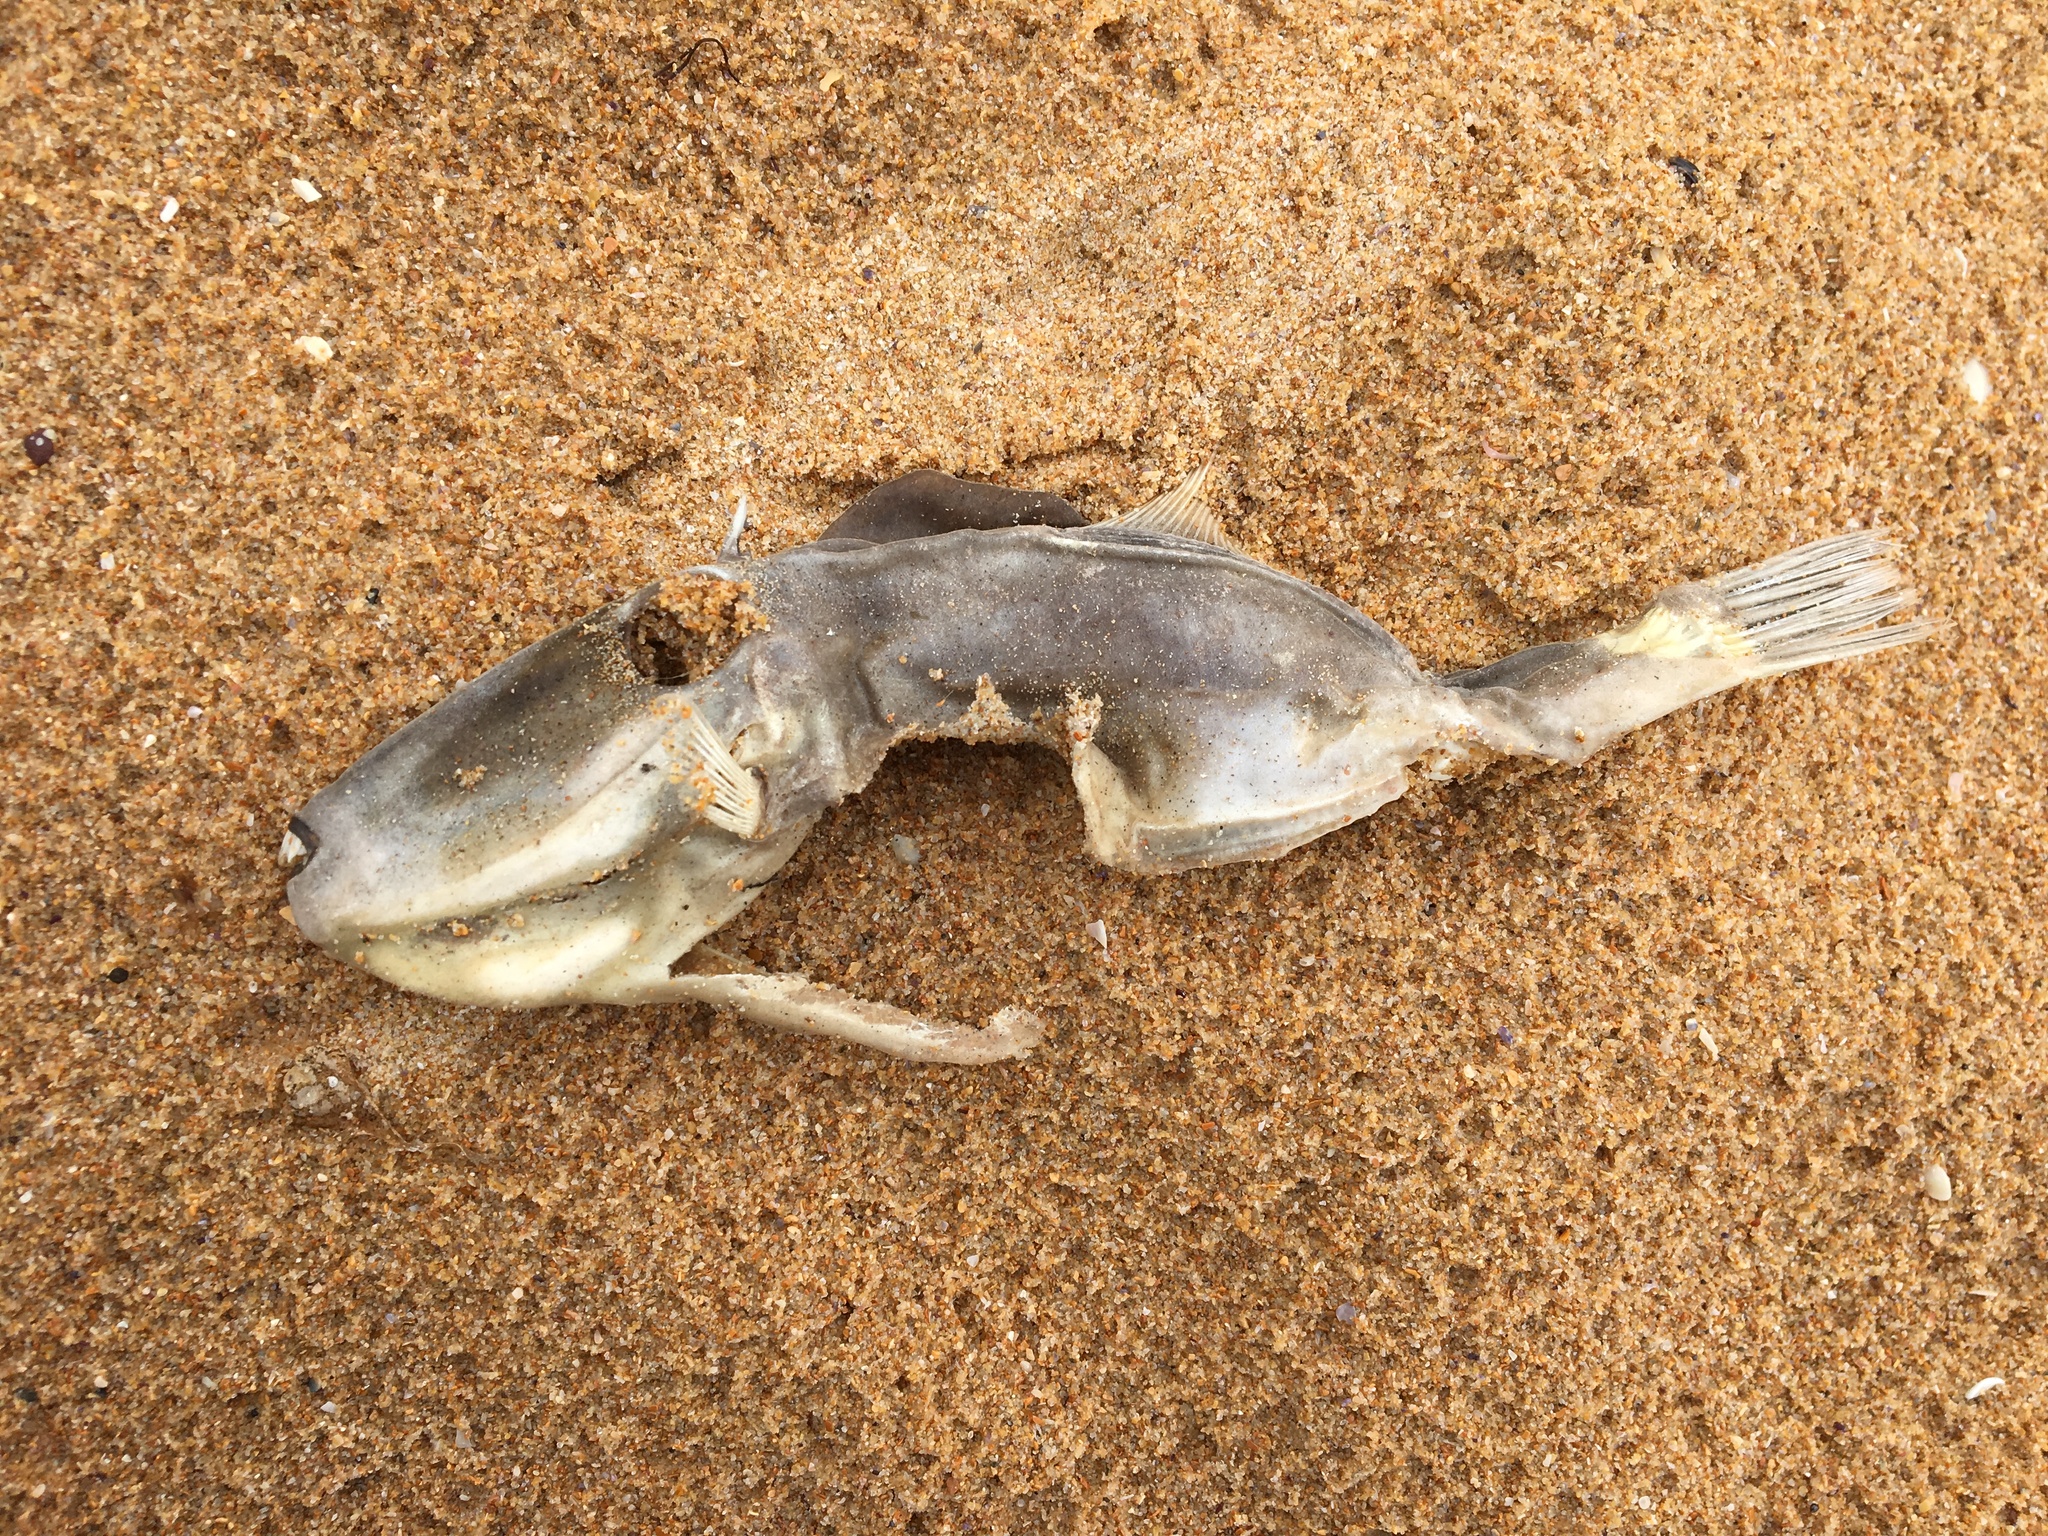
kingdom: Animalia
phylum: Chordata
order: Tetraodontiformes
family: Monacanthidae
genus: Nelusetta
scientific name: Nelusetta ayraud
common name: Chinaman leatherjacket
